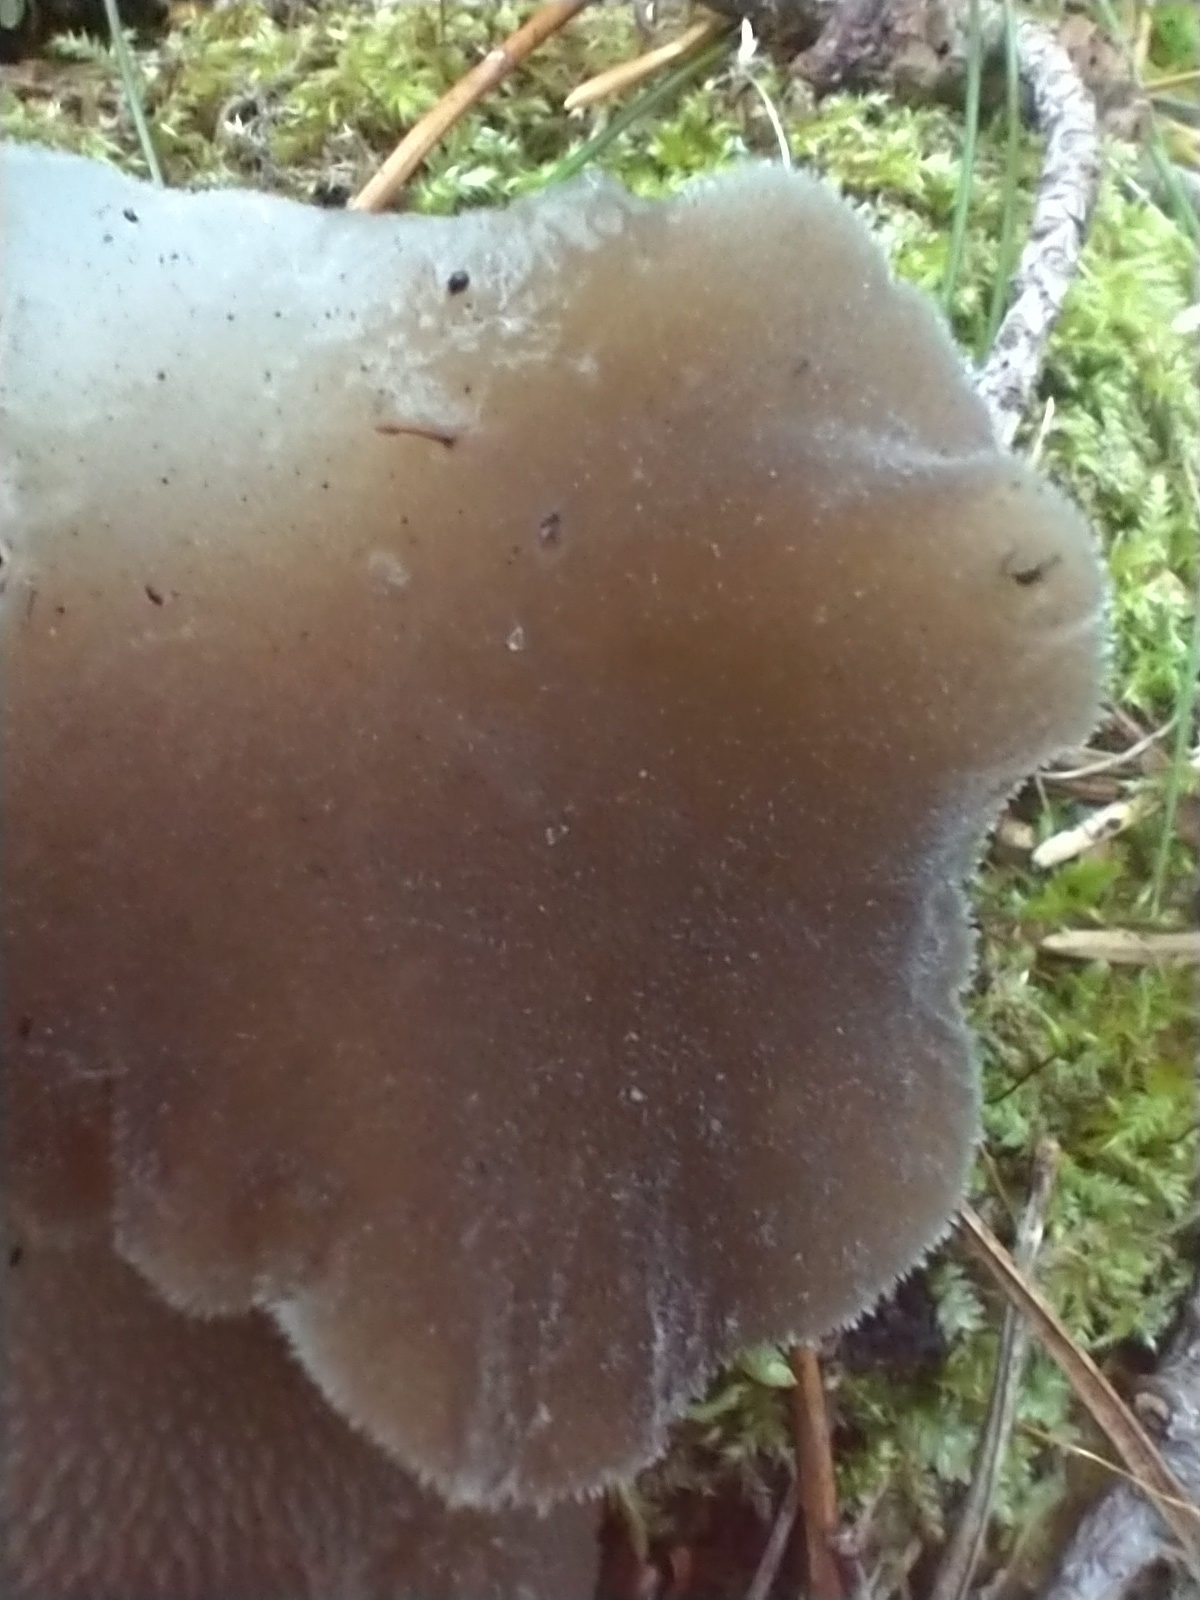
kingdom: Fungi
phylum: Basidiomycota
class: Agaricomycetes
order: Auriculariales
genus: Pseudohydnum
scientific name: Pseudohydnum gelatinosum
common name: Jelly tongue
